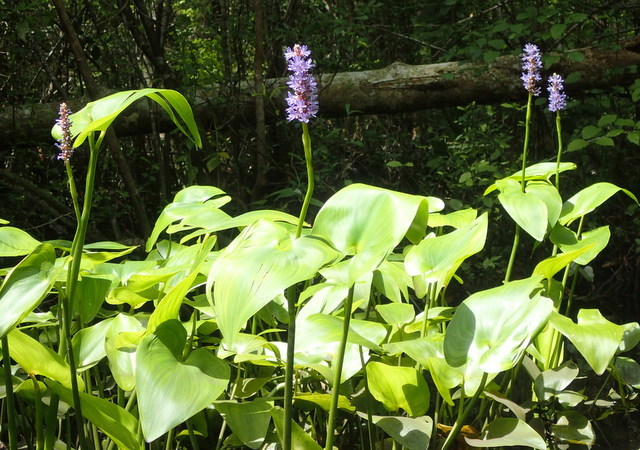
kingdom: Plantae
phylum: Tracheophyta
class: Liliopsida
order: Commelinales
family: Pontederiaceae
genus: Pontederia
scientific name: Pontederia cordata
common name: Pickerelweed
